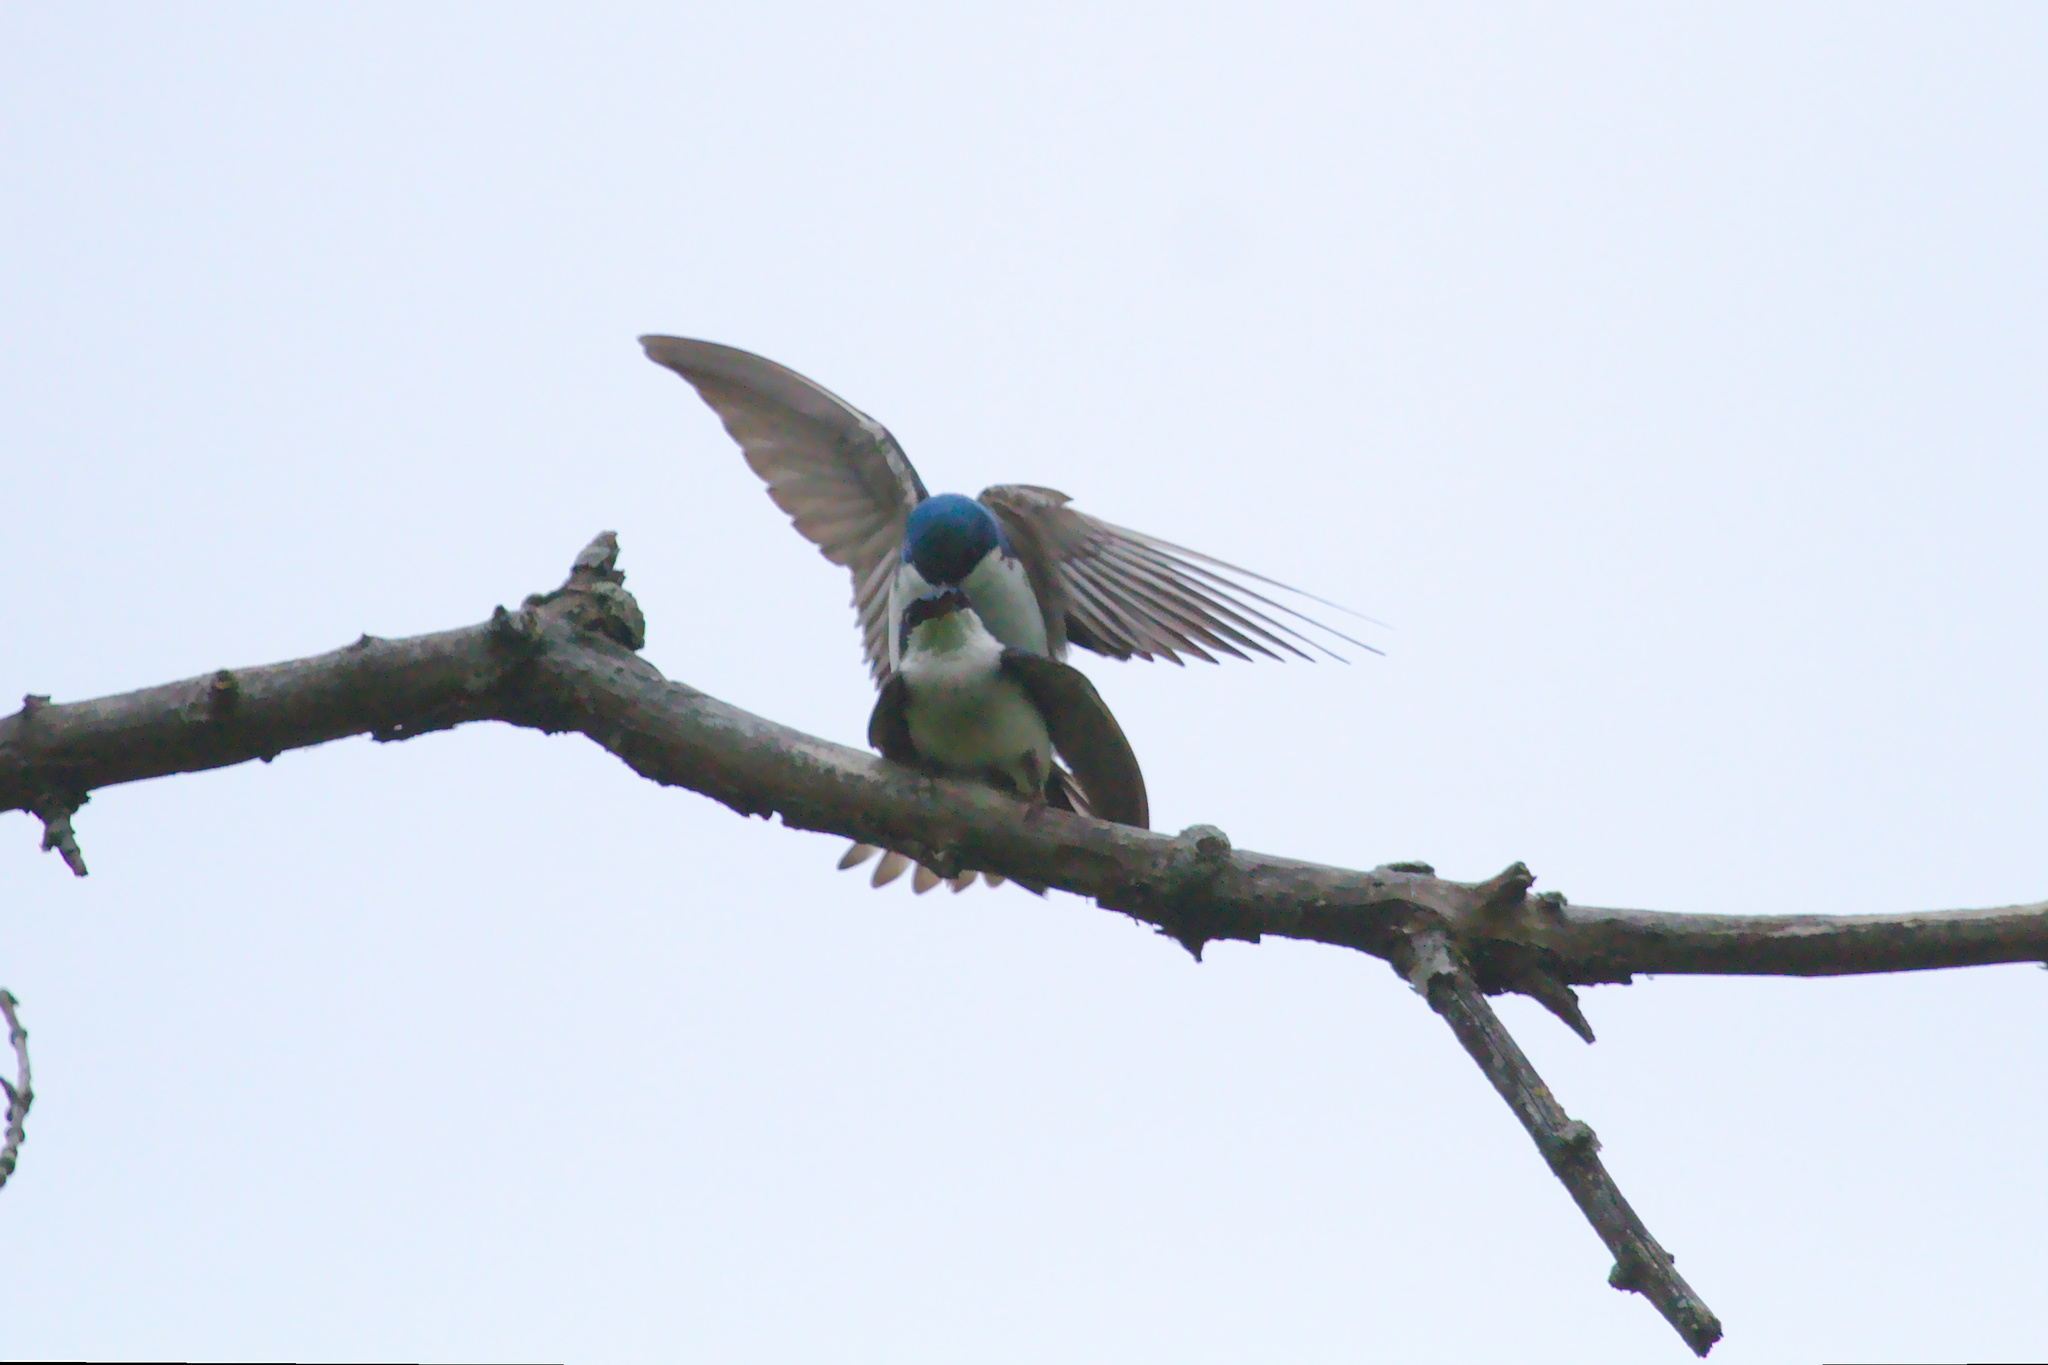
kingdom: Animalia
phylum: Chordata
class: Aves
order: Passeriformes
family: Hirundinidae
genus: Tachycineta
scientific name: Tachycineta bicolor
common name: Tree swallow
